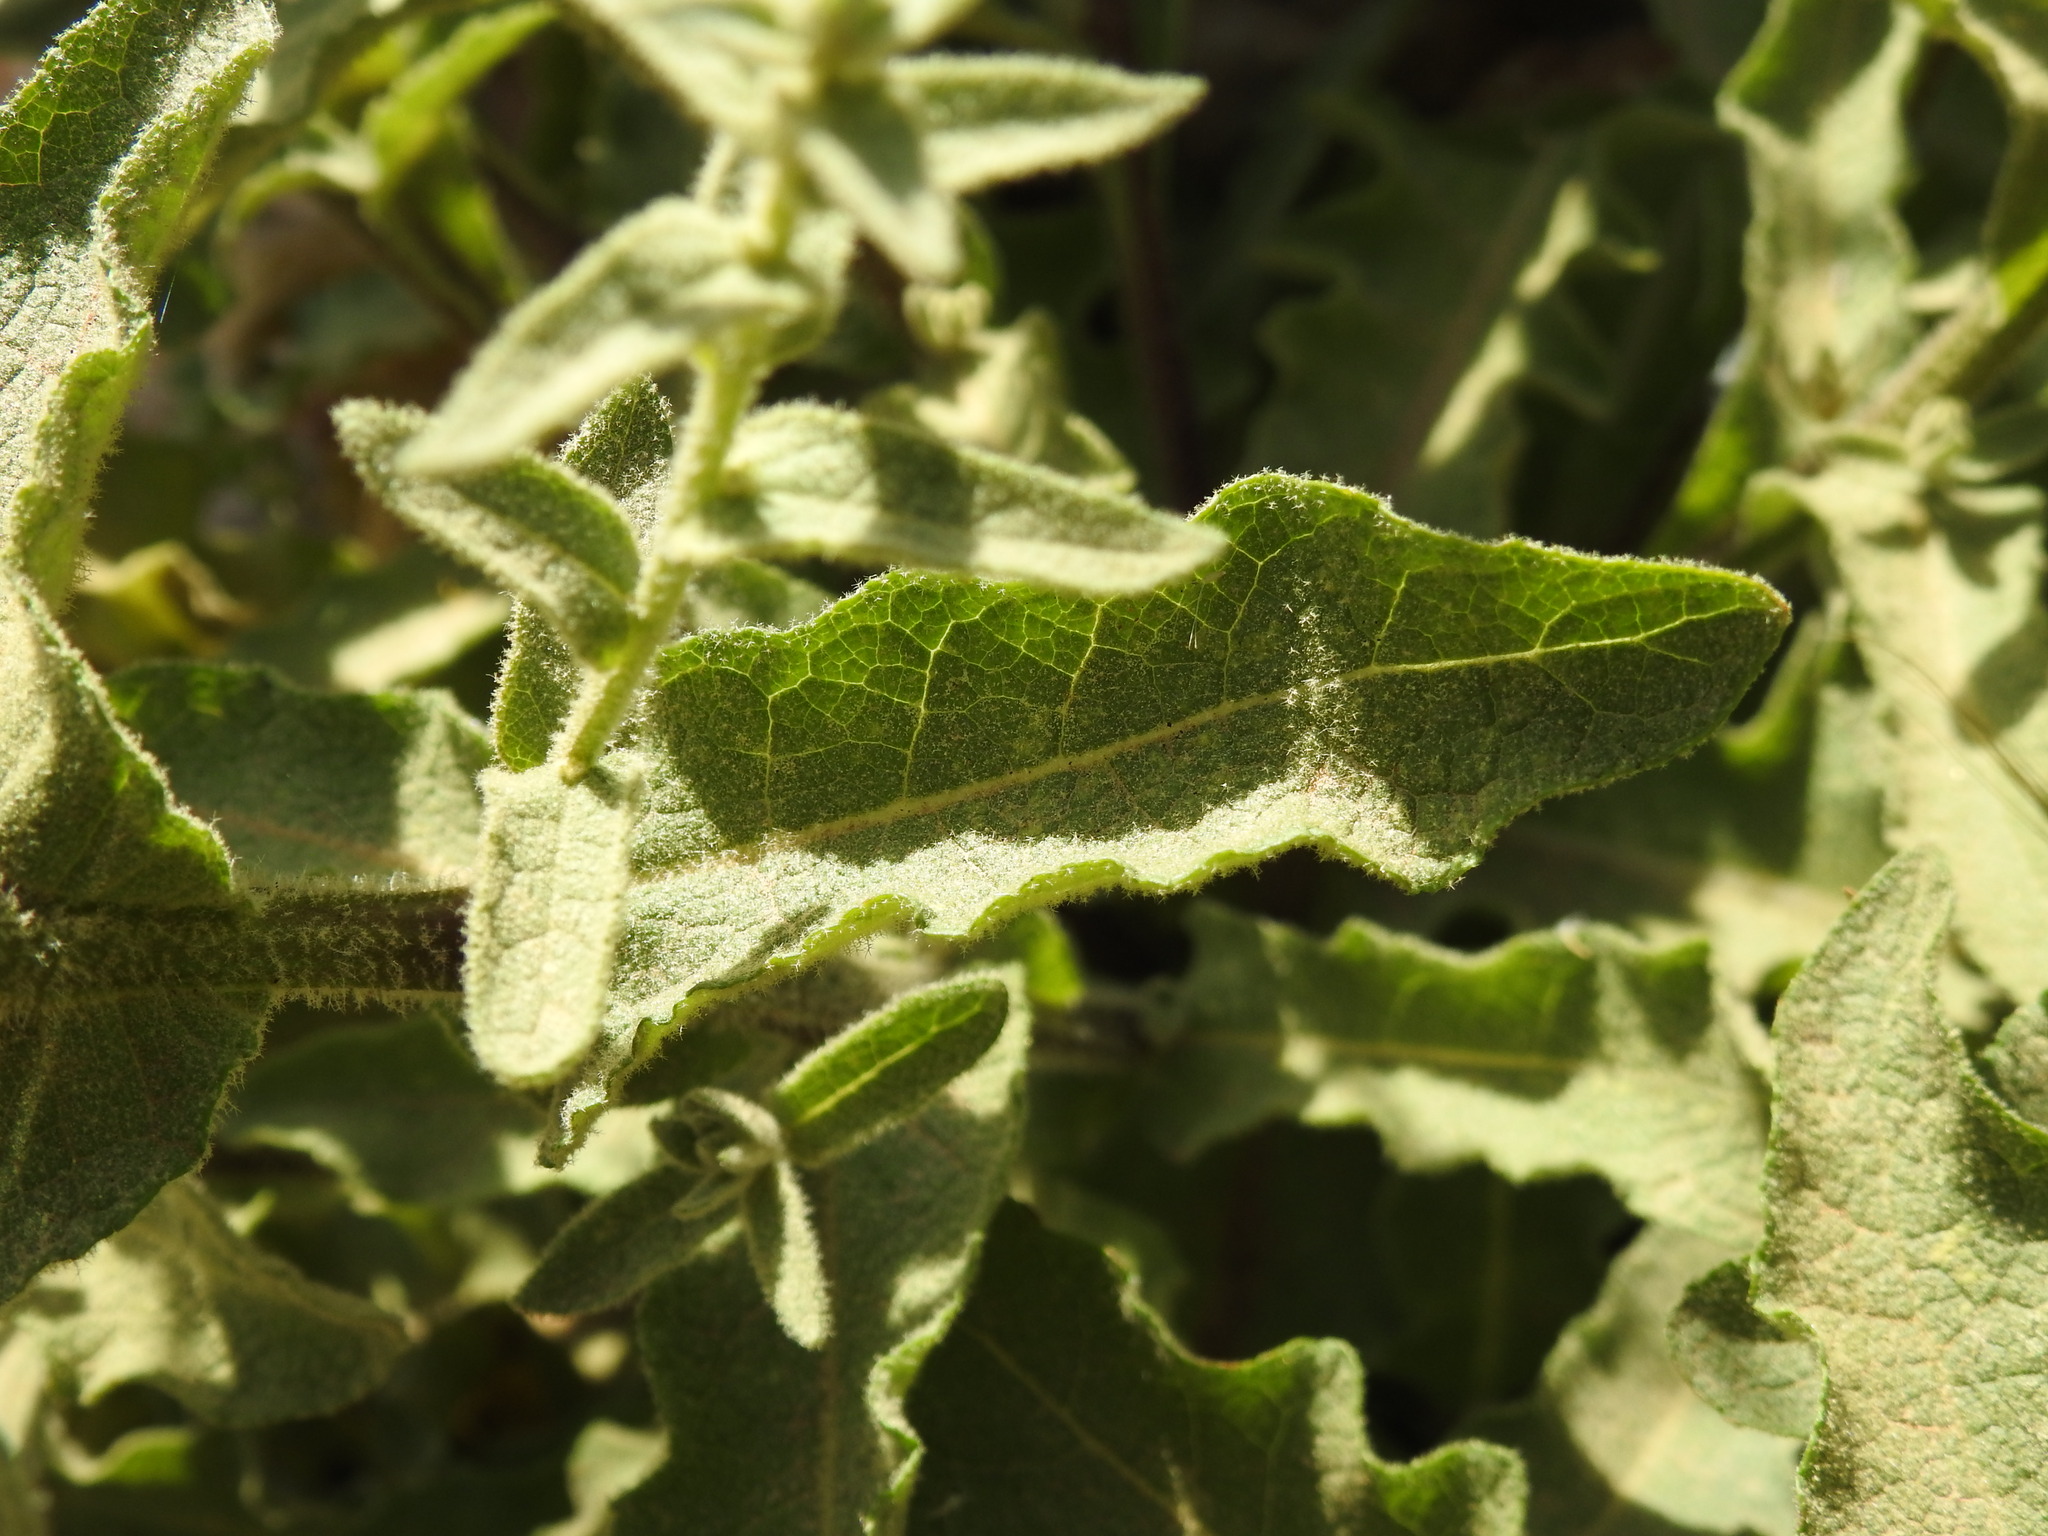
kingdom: Plantae
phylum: Tracheophyta
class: Magnoliopsida
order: Lamiales
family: Scrophulariaceae
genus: Verbascum
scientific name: Verbascum sinuatum
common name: Wavyleaf mullein
